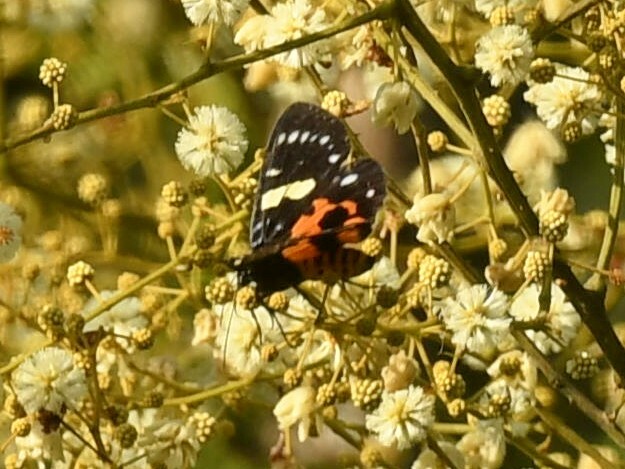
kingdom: Animalia
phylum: Arthropoda
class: Insecta
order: Lepidoptera
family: Noctuidae
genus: Episteme
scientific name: Episteme latimargo
